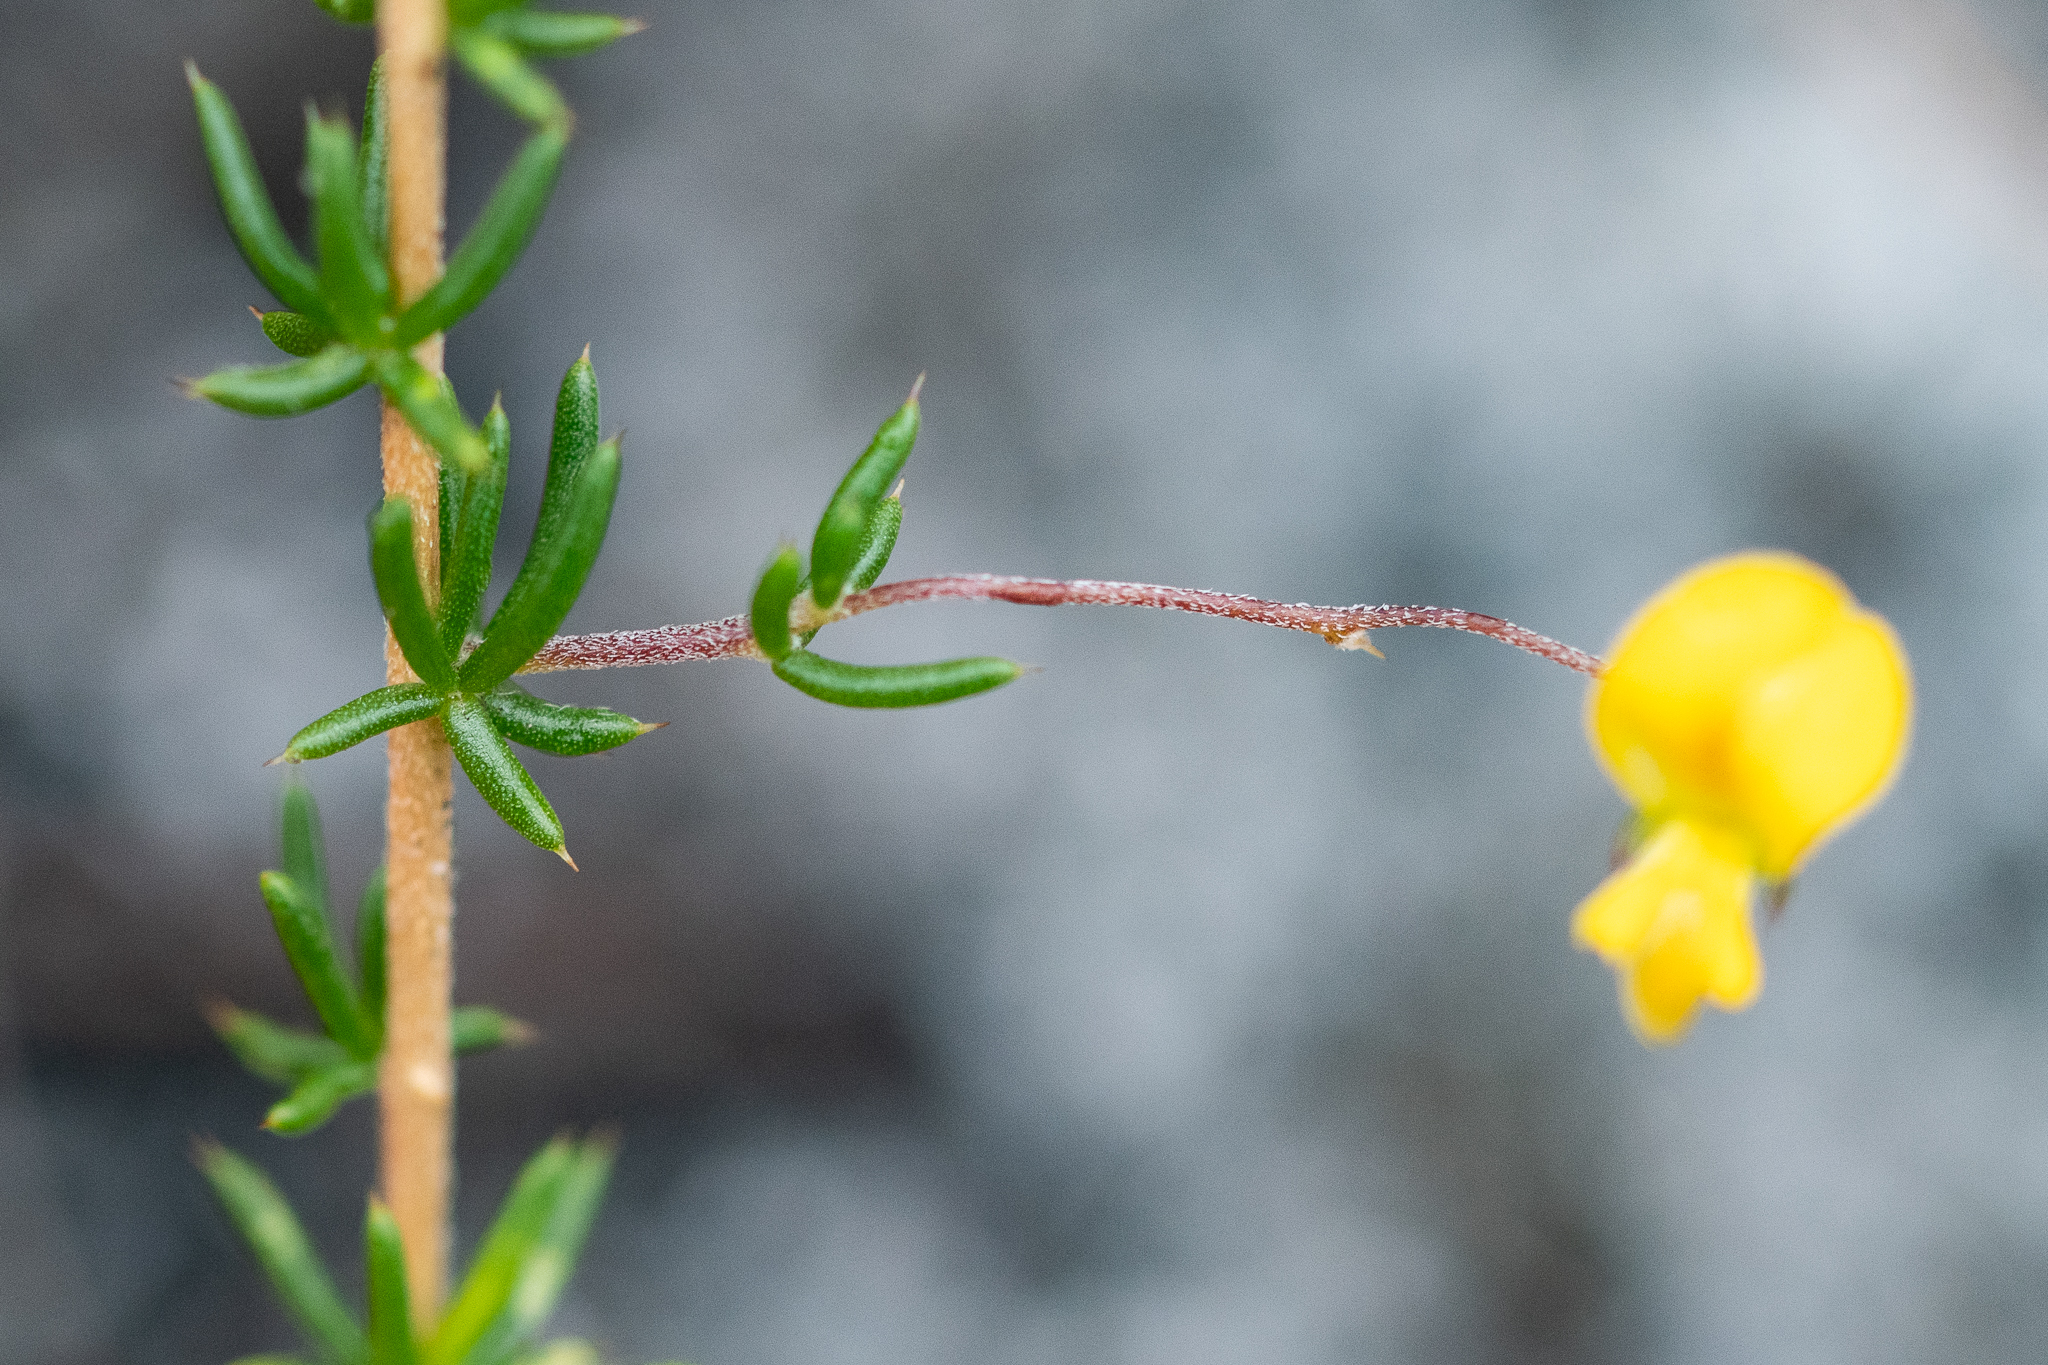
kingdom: Plantae
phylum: Tracheophyta
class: Magnoliopsida
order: Fabales
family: Fabaceae
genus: Aspalathus
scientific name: Aspalathus serpens
